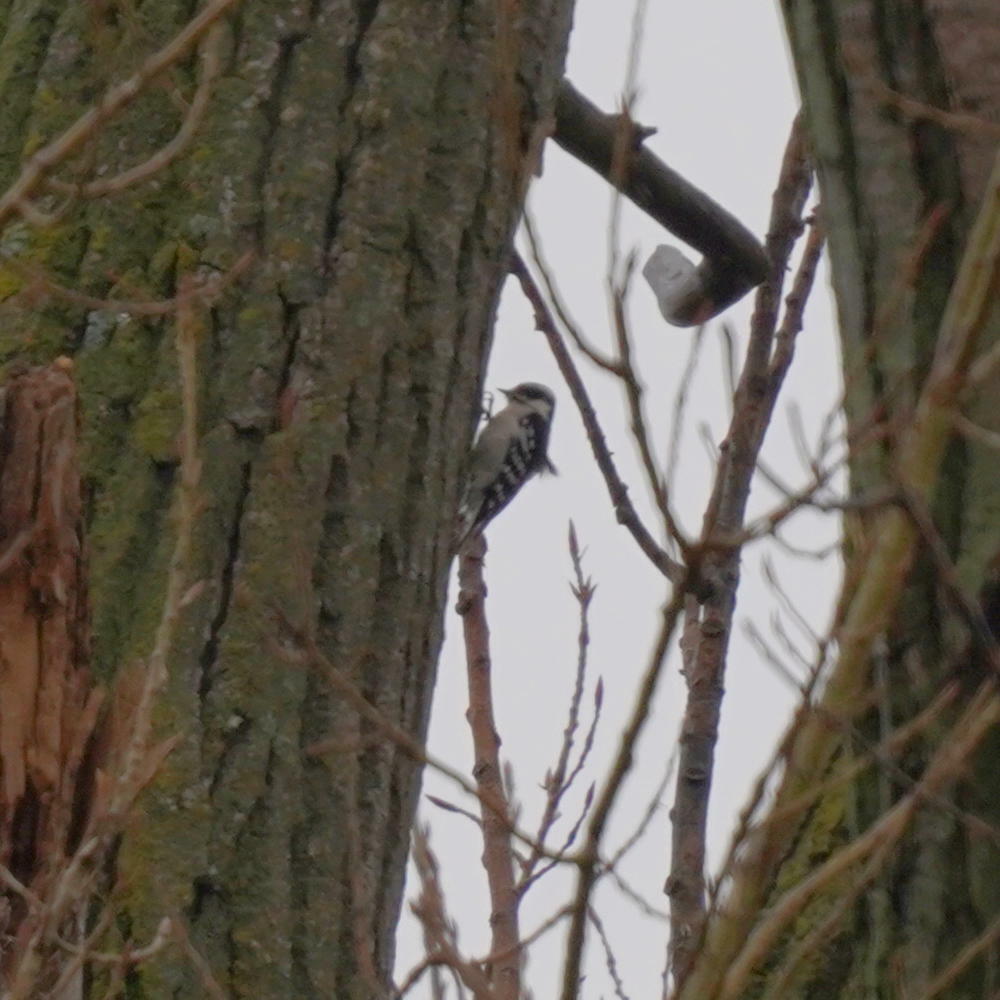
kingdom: Animalia
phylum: Chordata
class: Aves
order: Piciformes
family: Picidae
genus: Dryobates
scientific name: Dryobates pubescens
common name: Downy woodpecker
